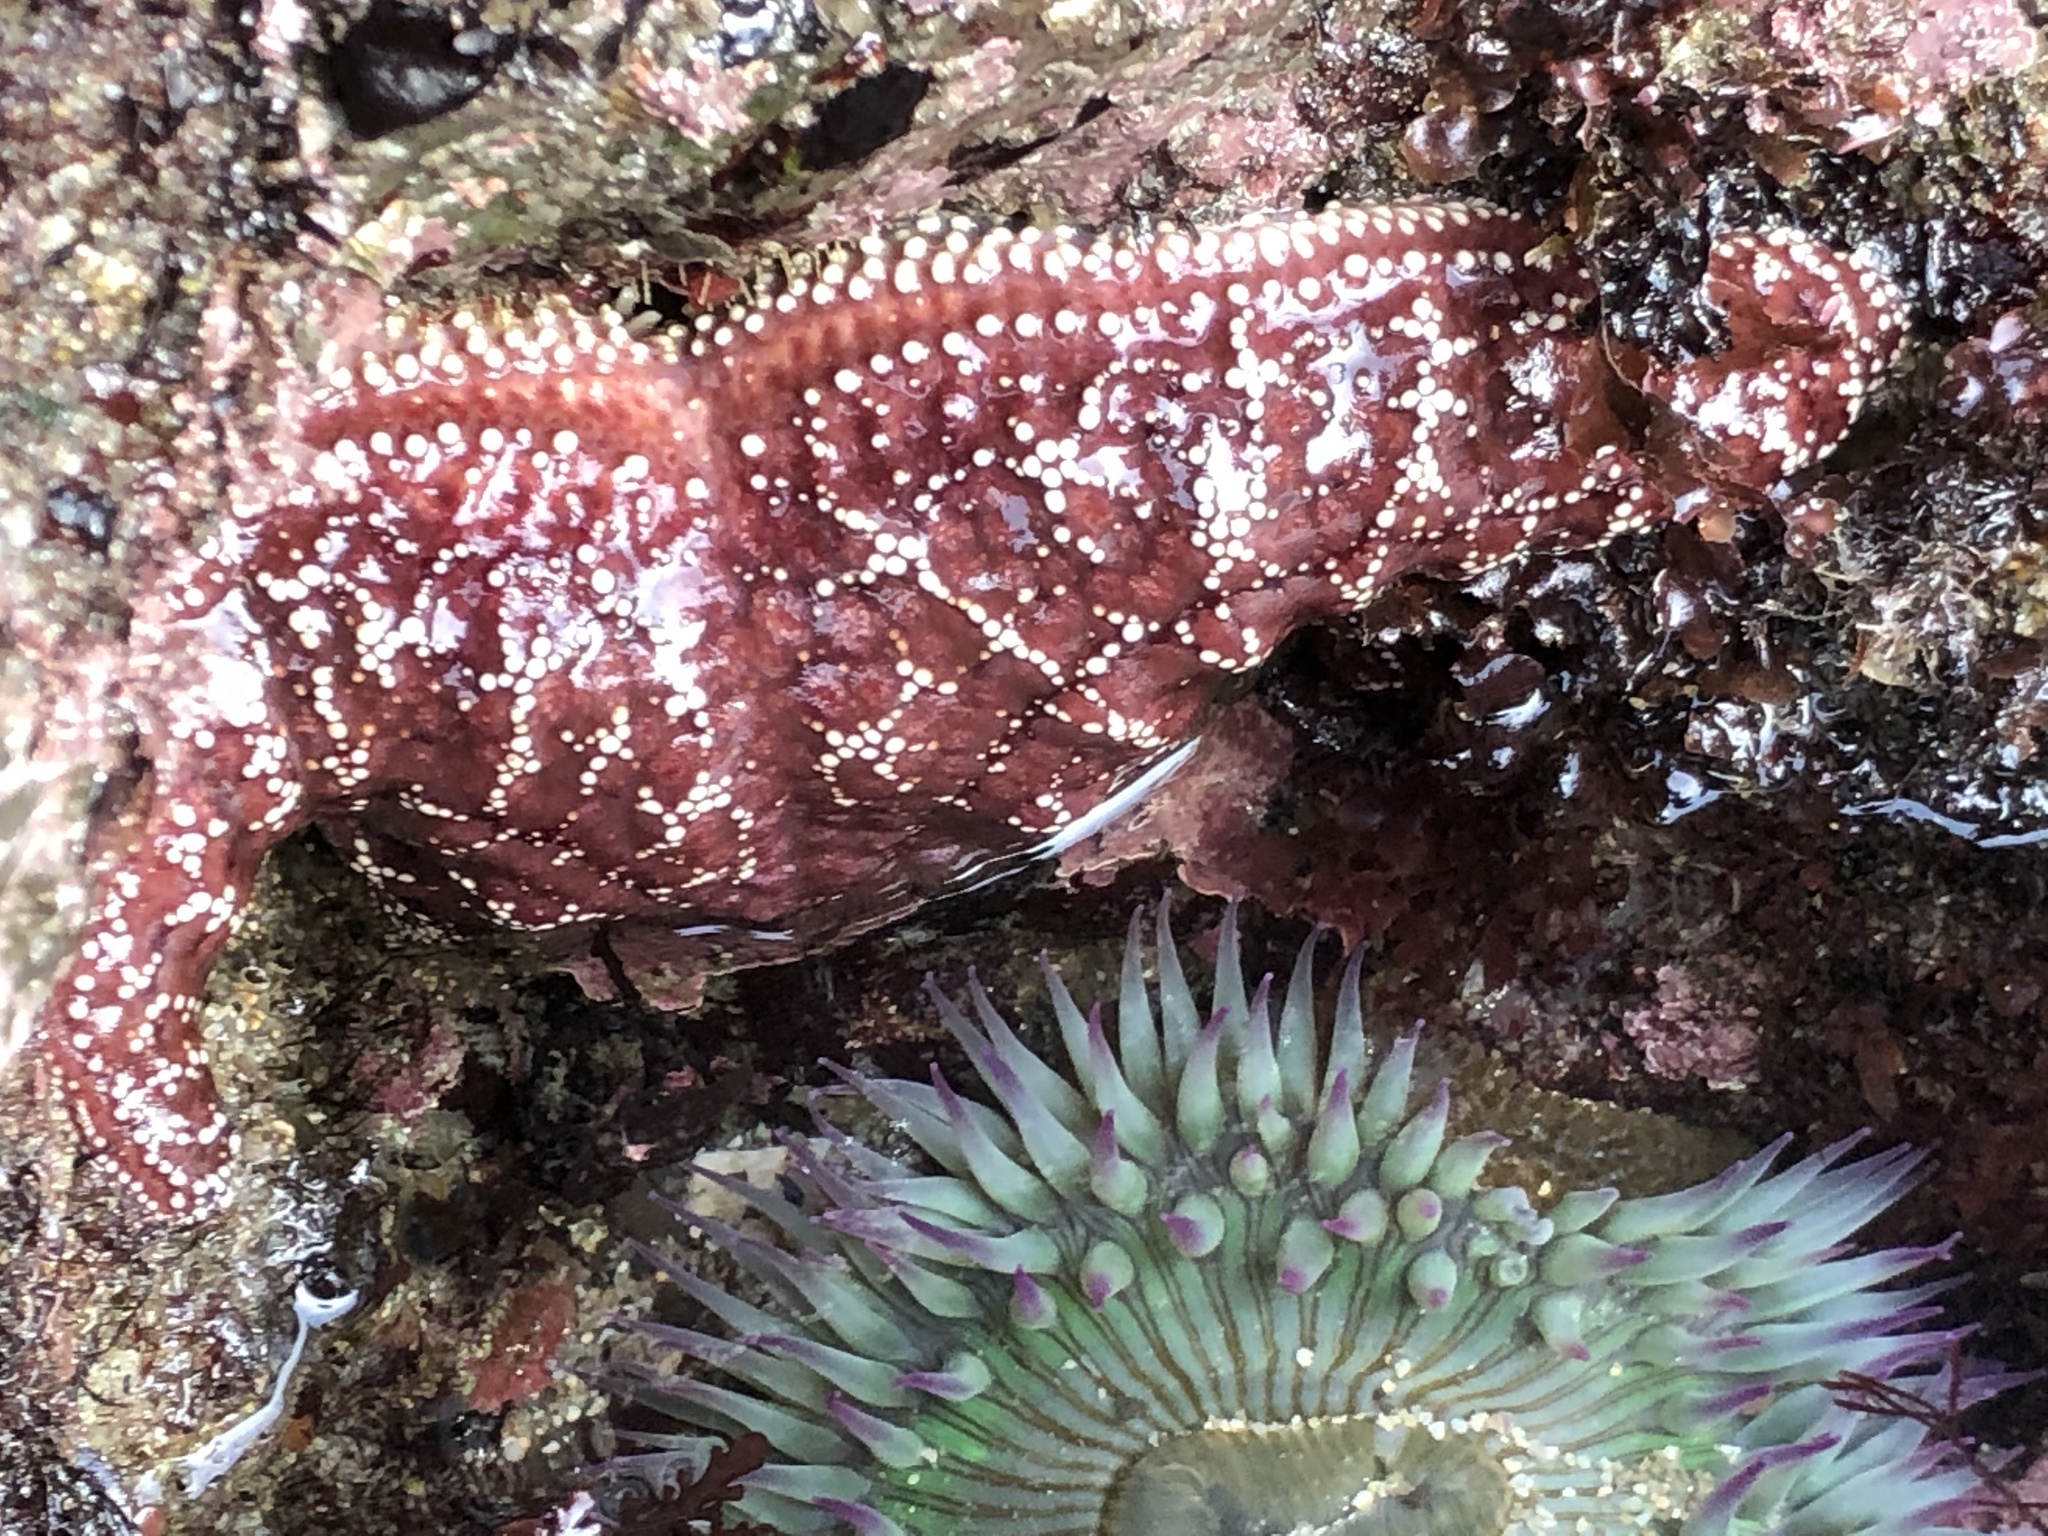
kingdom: Animalia
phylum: Echinodermata
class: Asteroidea
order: Forcipulatida
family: Asteriidae
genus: Pisaster
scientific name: Pisaster ochraceus
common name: Ochre stars
